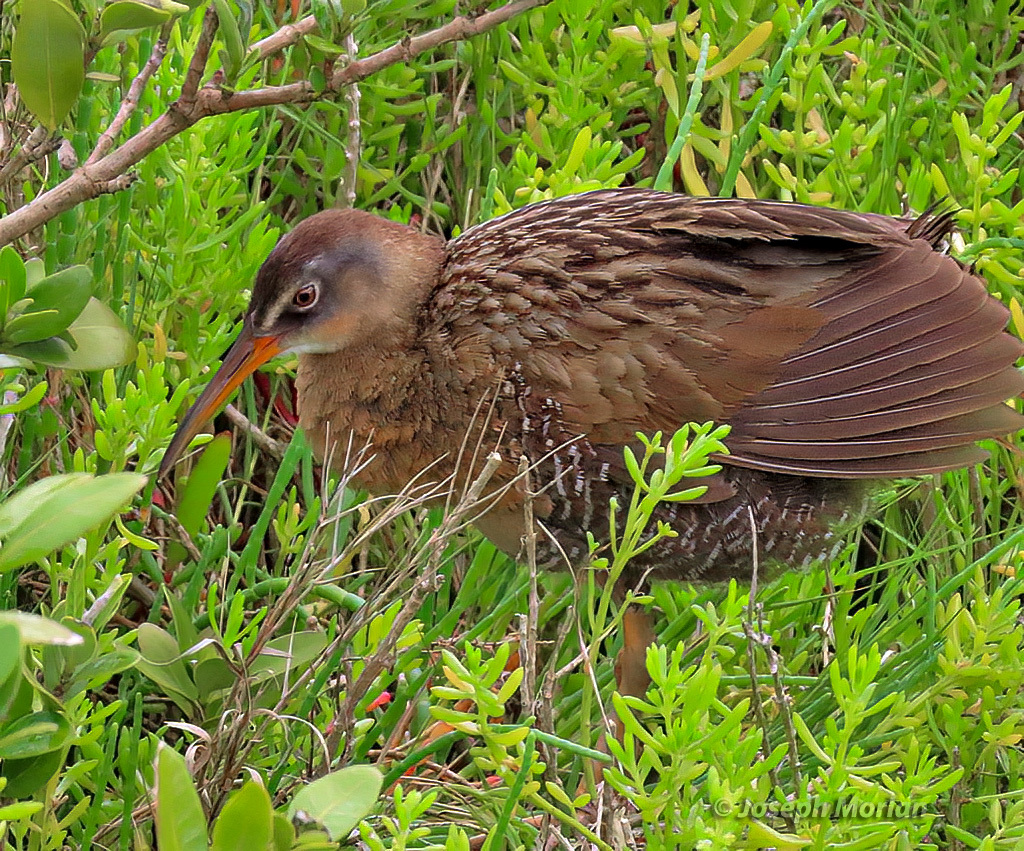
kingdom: Animalia
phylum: Chordata
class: Aves
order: Gruiformes
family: Rallidae
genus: Rallus
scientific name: Rallus crepitans
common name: Clapper rail
